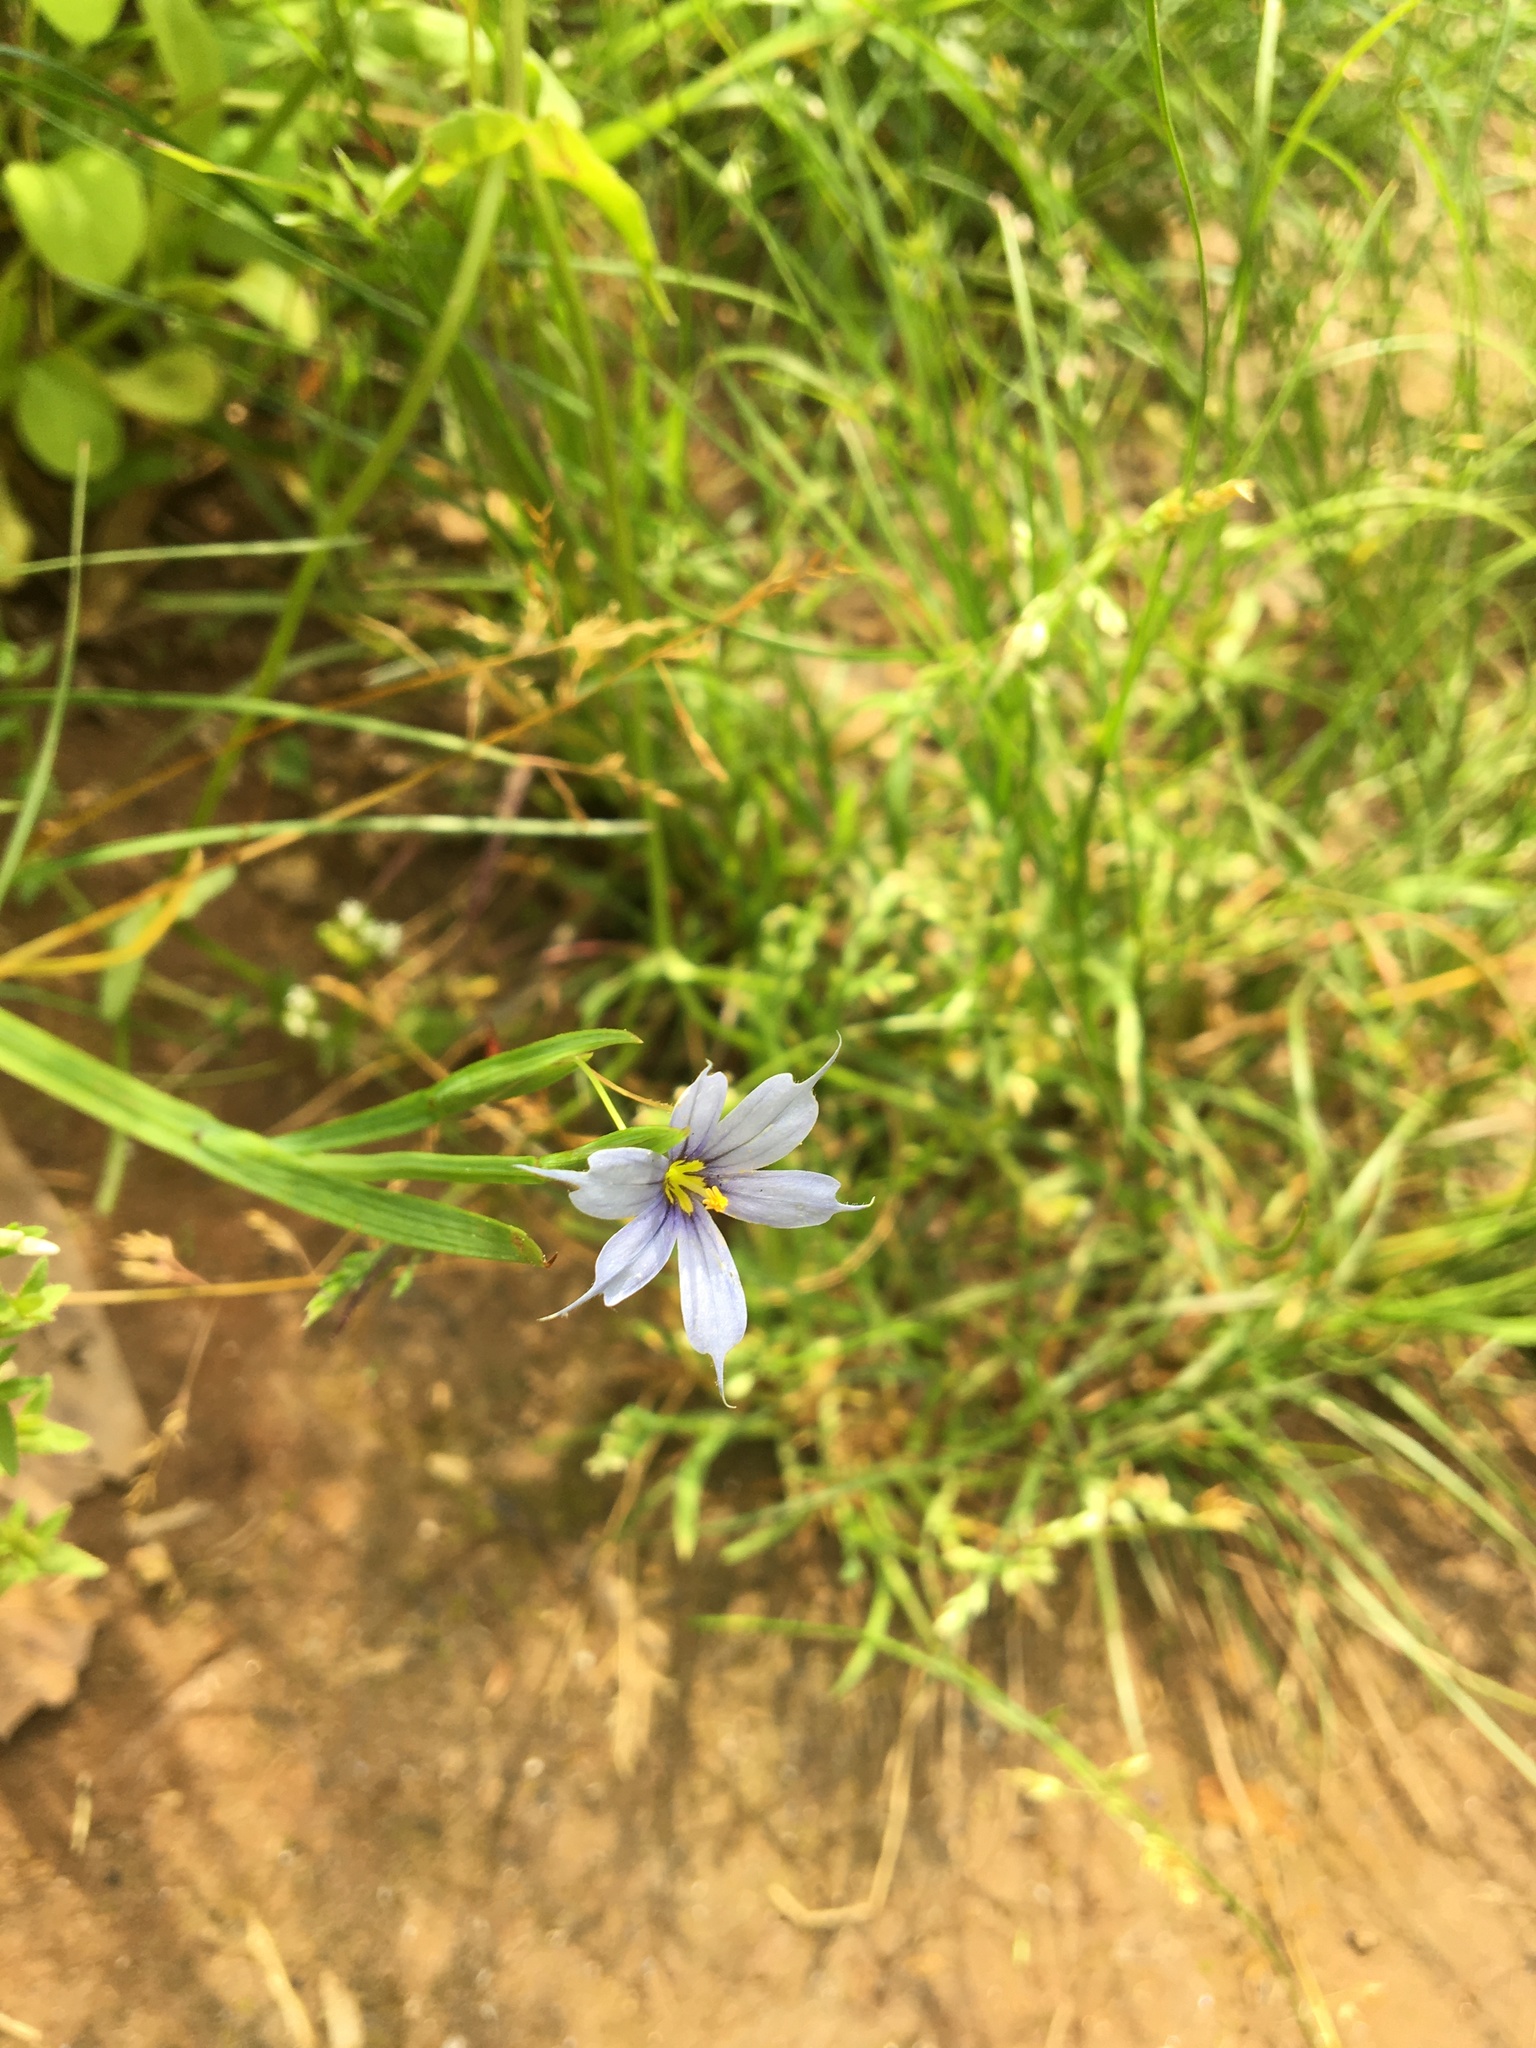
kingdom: Plantae
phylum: Tracheophyta
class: Liliopsida
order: Asparagales
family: Iridaceae
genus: Sisyrinchium
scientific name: Sisyrinchium angustifolium
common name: Narrow-leaf blue-eyed-grass
